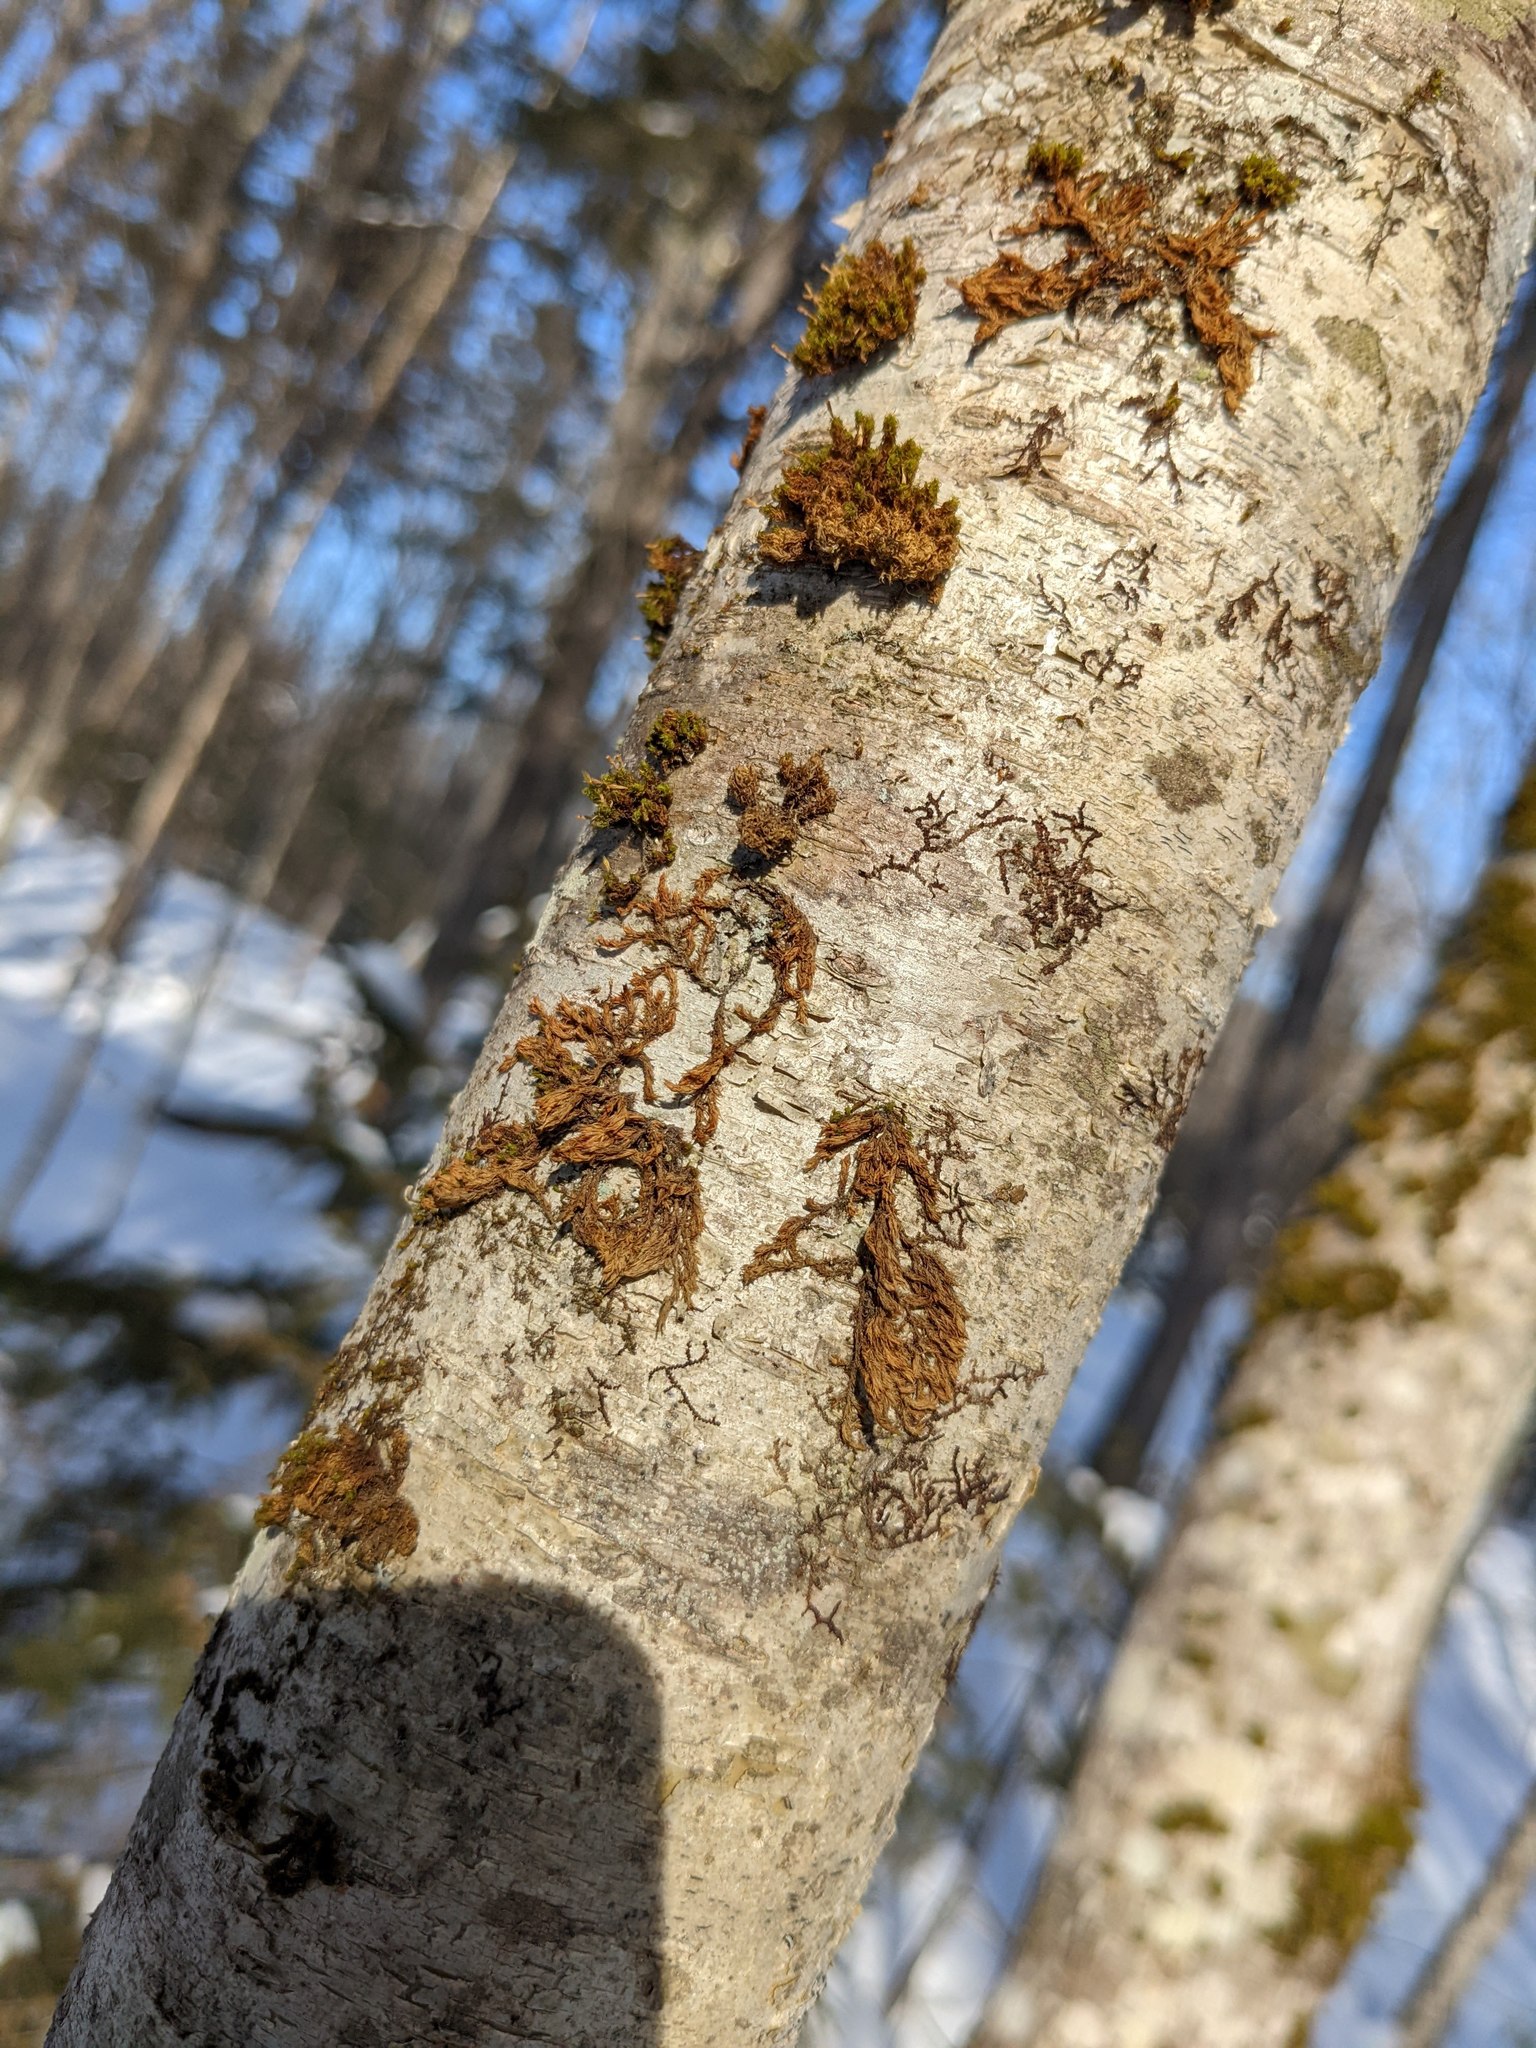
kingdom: Plantae
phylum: Bryophyta
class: Bryopsida
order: Orthotrichales
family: Orthotrichaceae
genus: Ulota
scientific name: Ulota crispa
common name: Crisped pincushion moss
